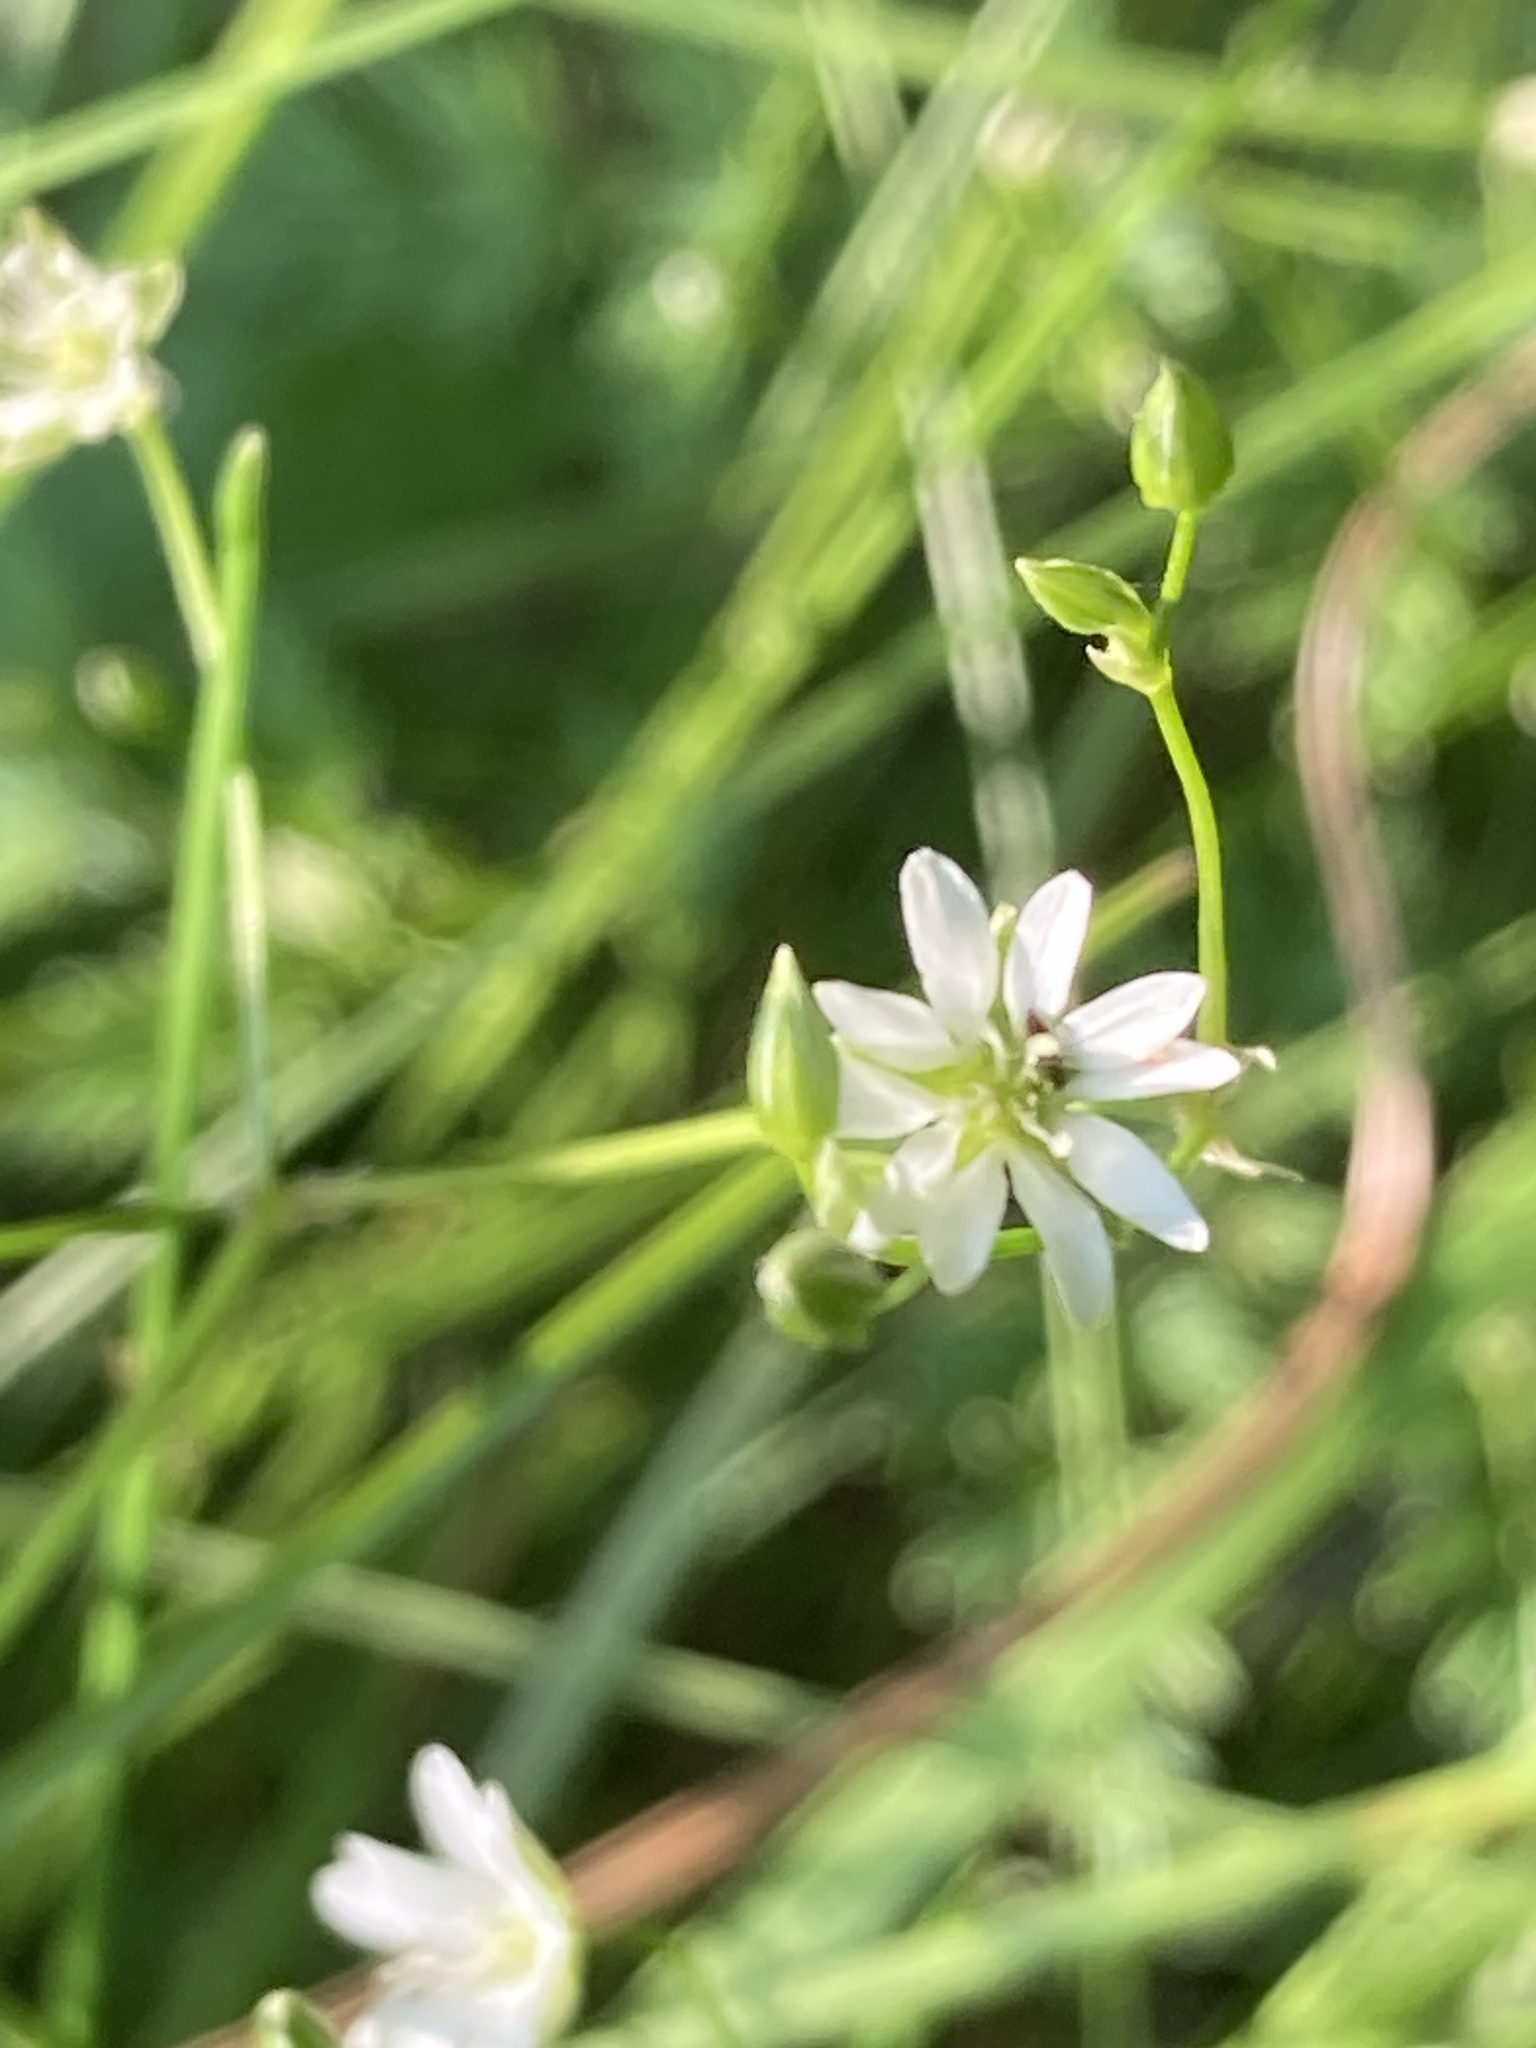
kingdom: Plantae
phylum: Tracheophyta
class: Magnoliopsida
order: Caryophyllales
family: Caryophyllaceae
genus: Stellaria
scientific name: Stellaria graminea
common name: Grass-like starwort
